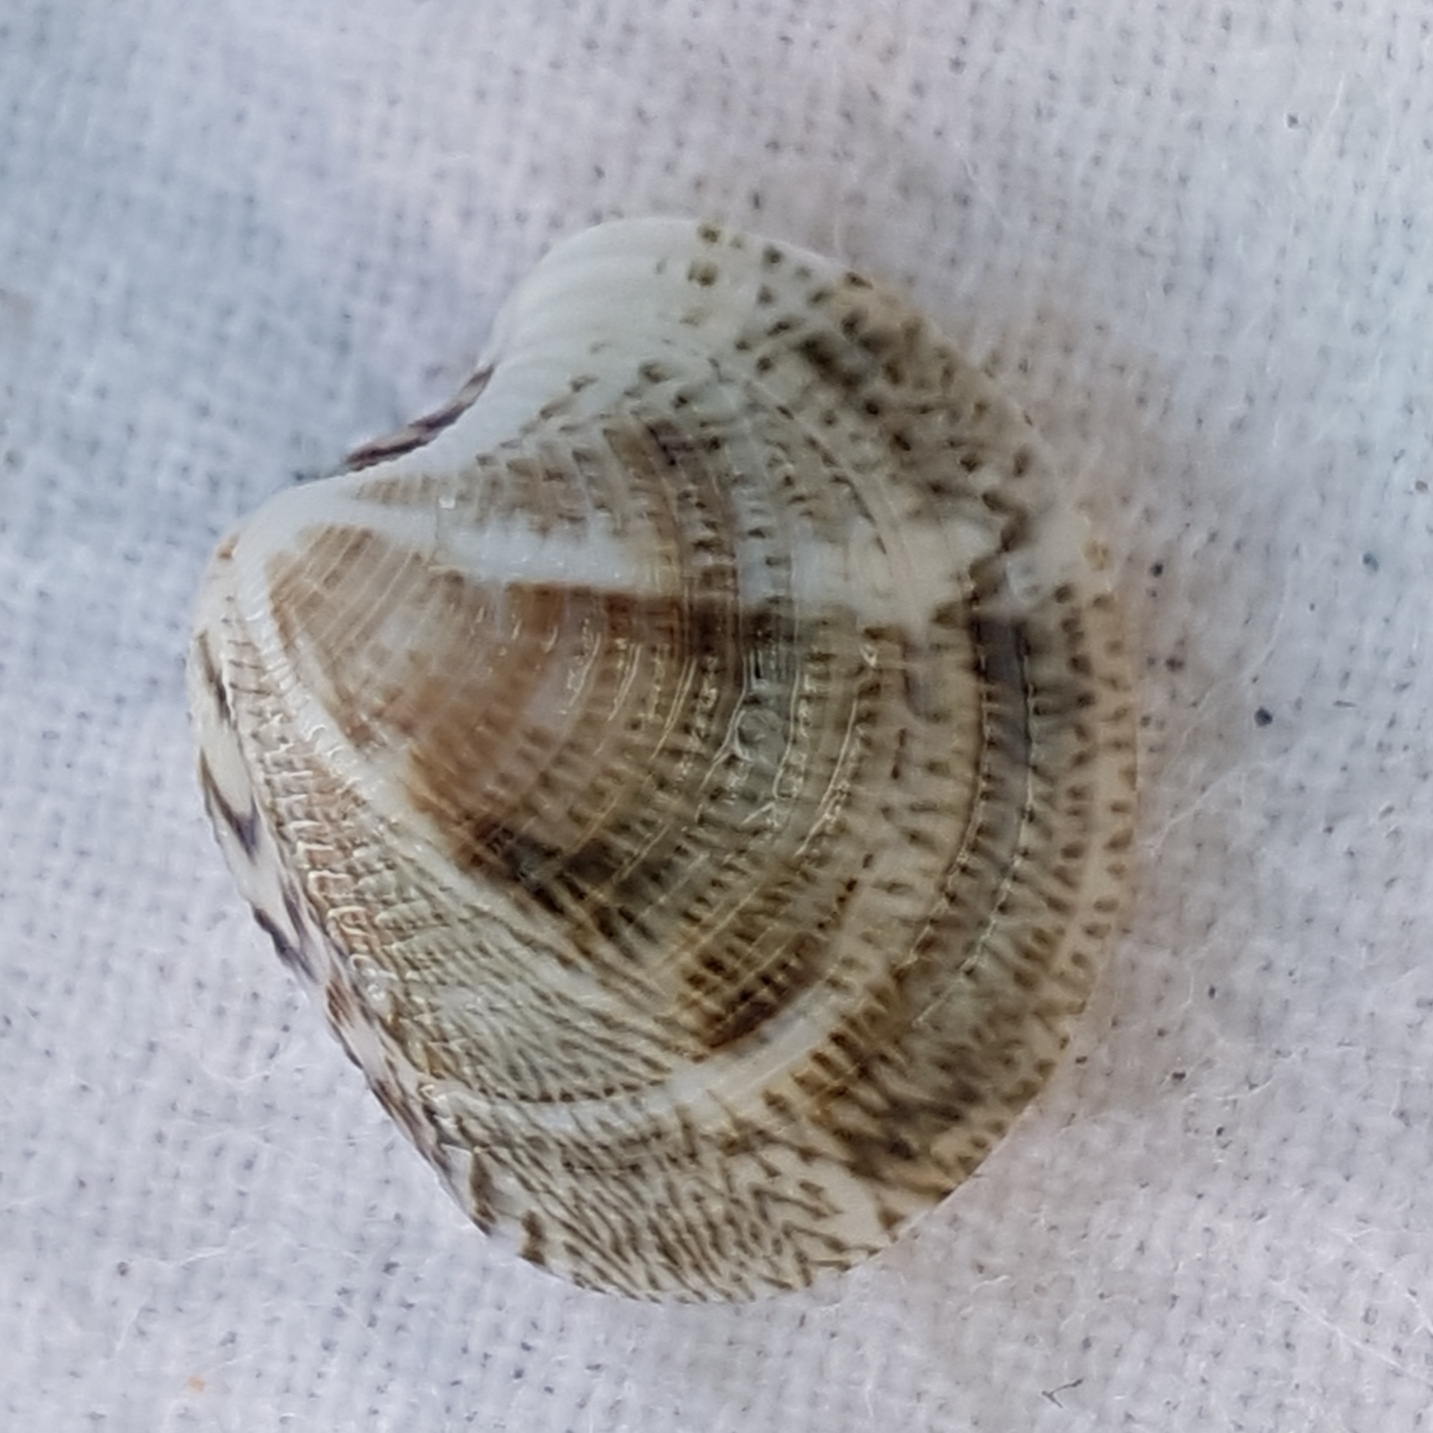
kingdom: Animalia
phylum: Mollusca
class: Bivalvia
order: Venerida
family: Veneridae
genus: Chamelea
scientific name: Chamelea gallina
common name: Chicken venus
